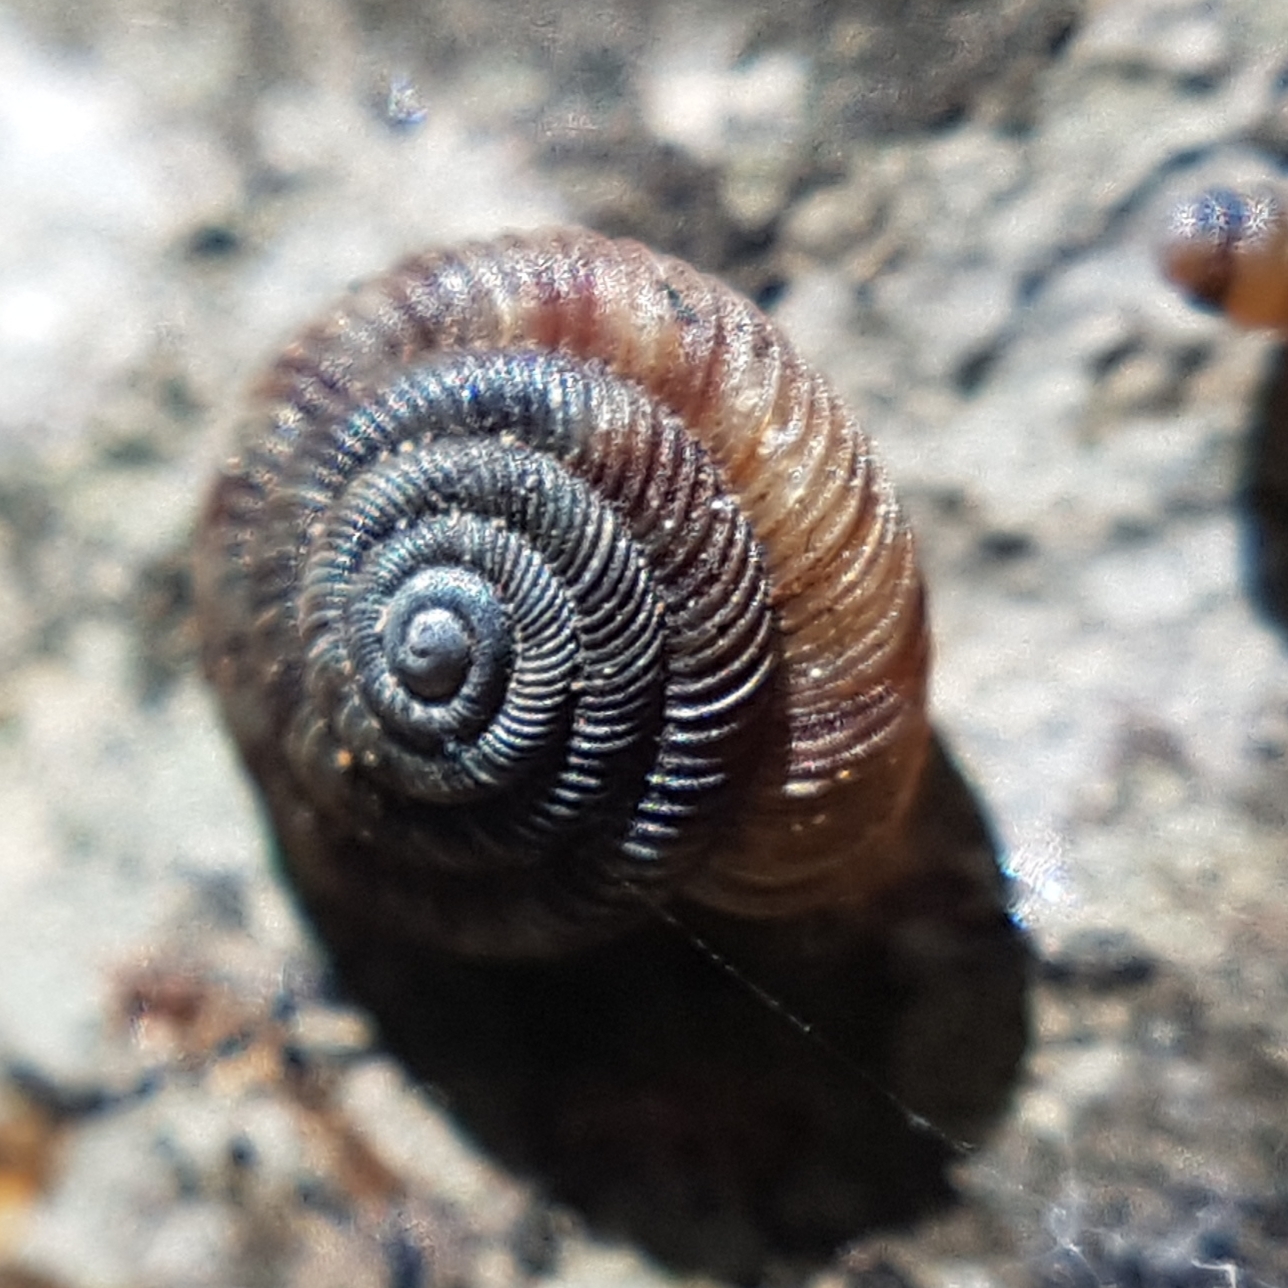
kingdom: Animalia
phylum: Mollusca
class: Gastropoda
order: Stylommatophora
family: Discidae
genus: Discus
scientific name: Discus rotundatus
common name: Rounded snail
